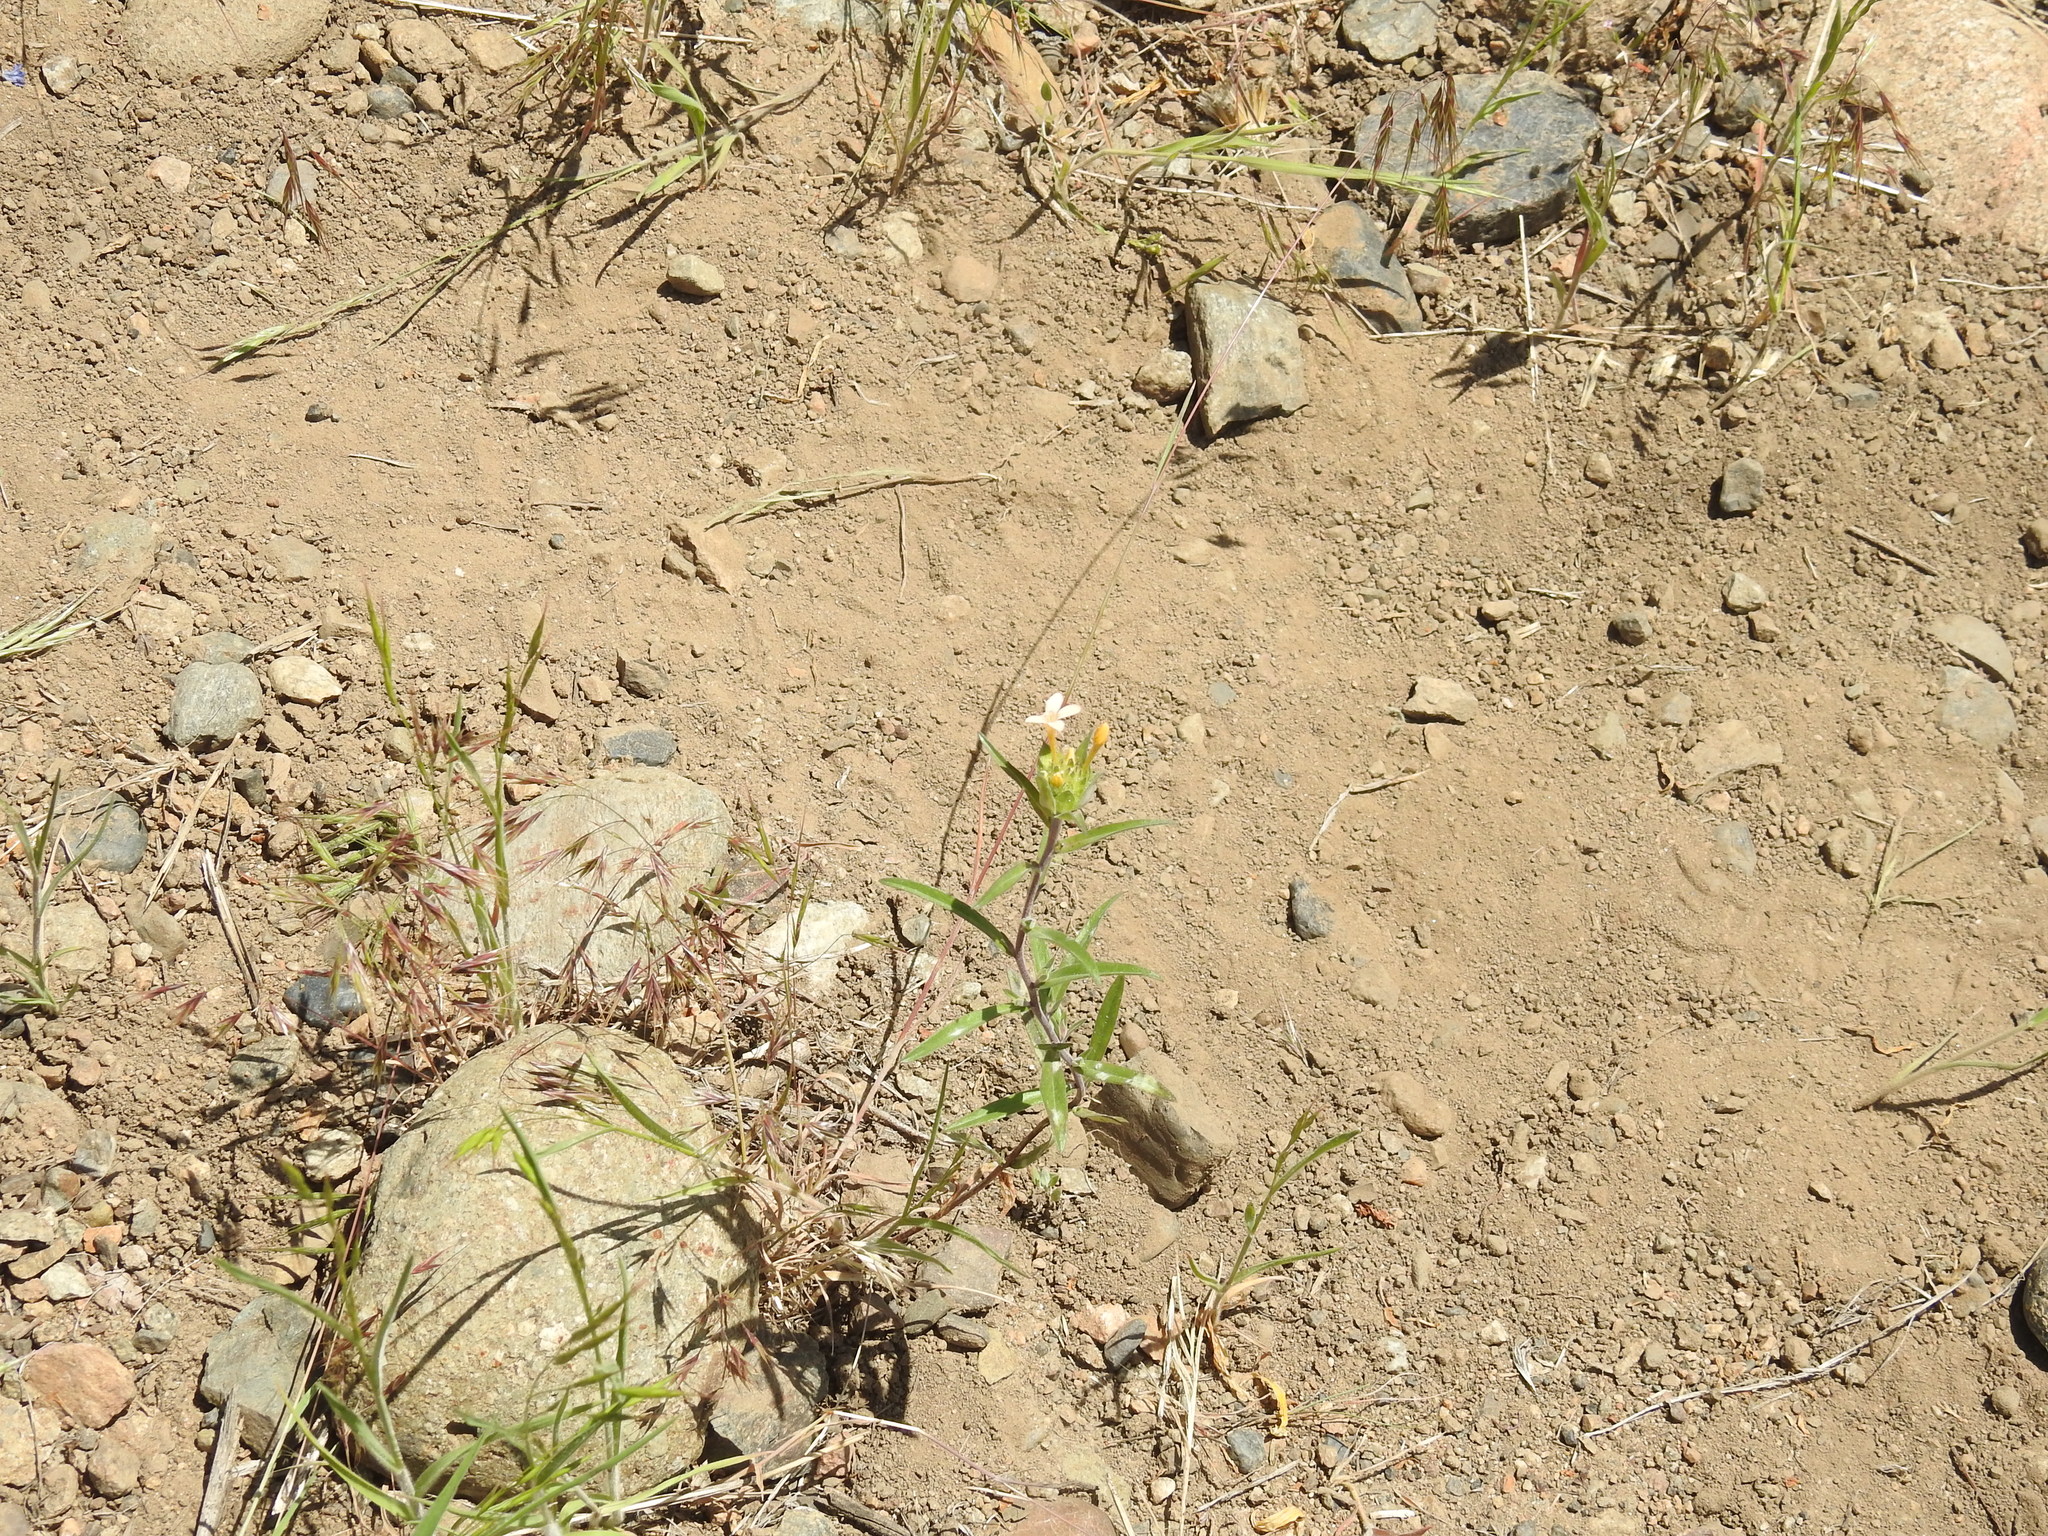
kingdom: Plantae
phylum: Tracheophyta
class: Magnoliopsida
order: Ericales
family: Polemoniaceae
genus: Collomia
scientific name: Collomia grandiflora
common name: California strawflower
